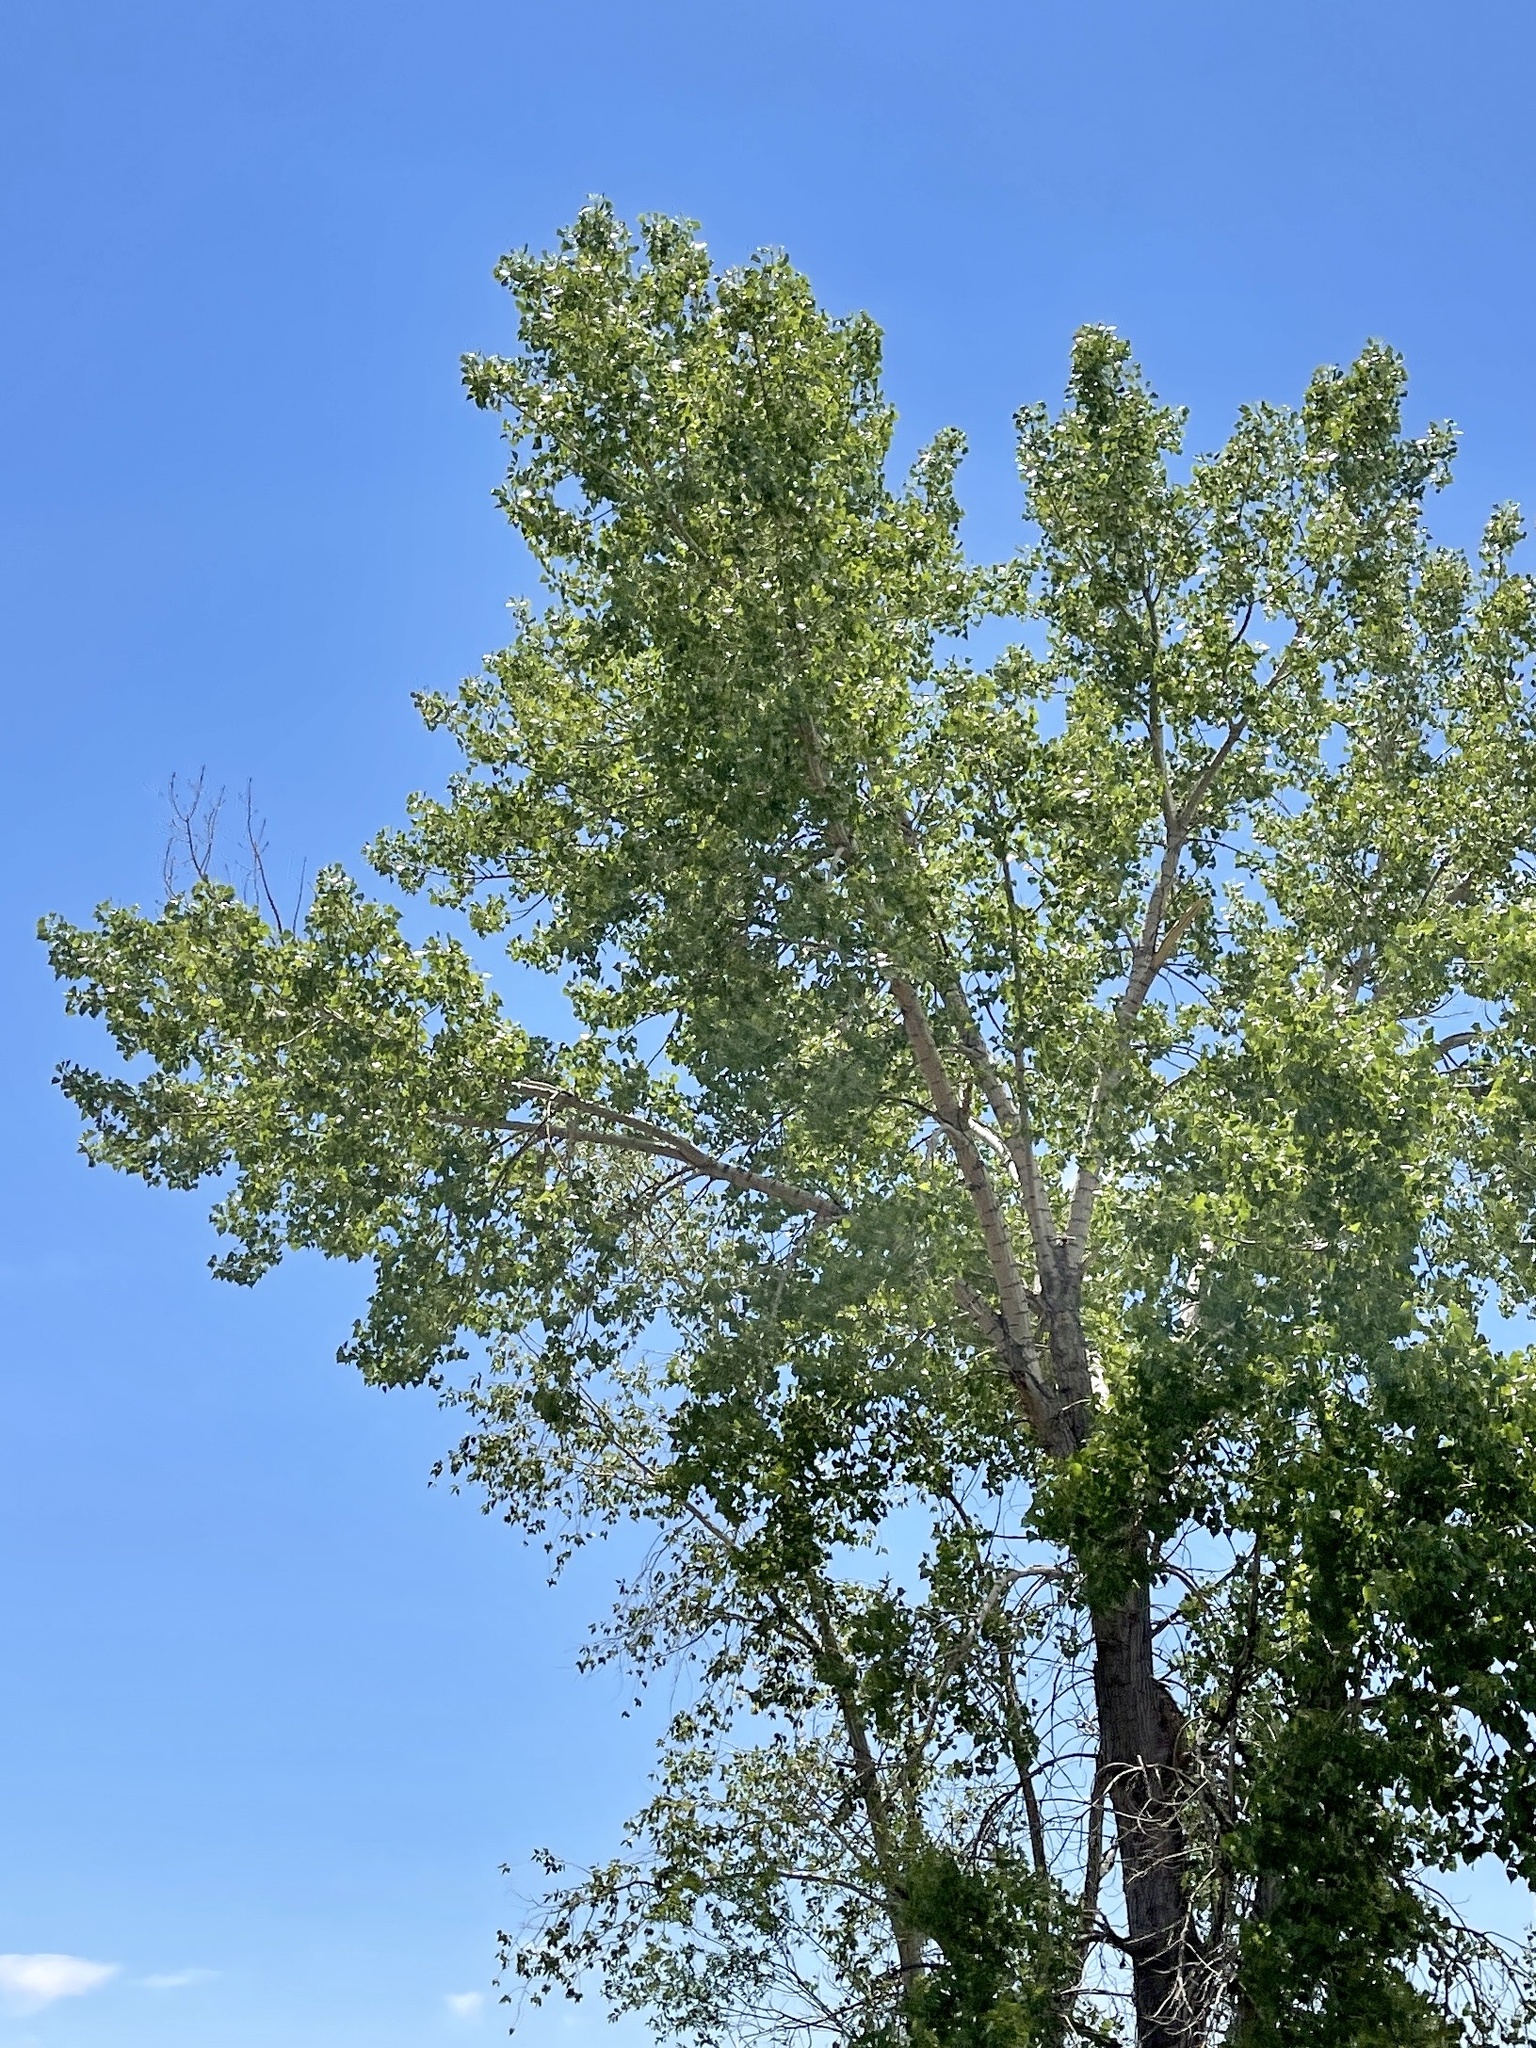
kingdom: Plantae
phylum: Tracheophyta
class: Magnoliopsida
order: Malpighiales
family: Salicaceae
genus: Populus
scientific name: Populus deltoides
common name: Eastern cottonwood
